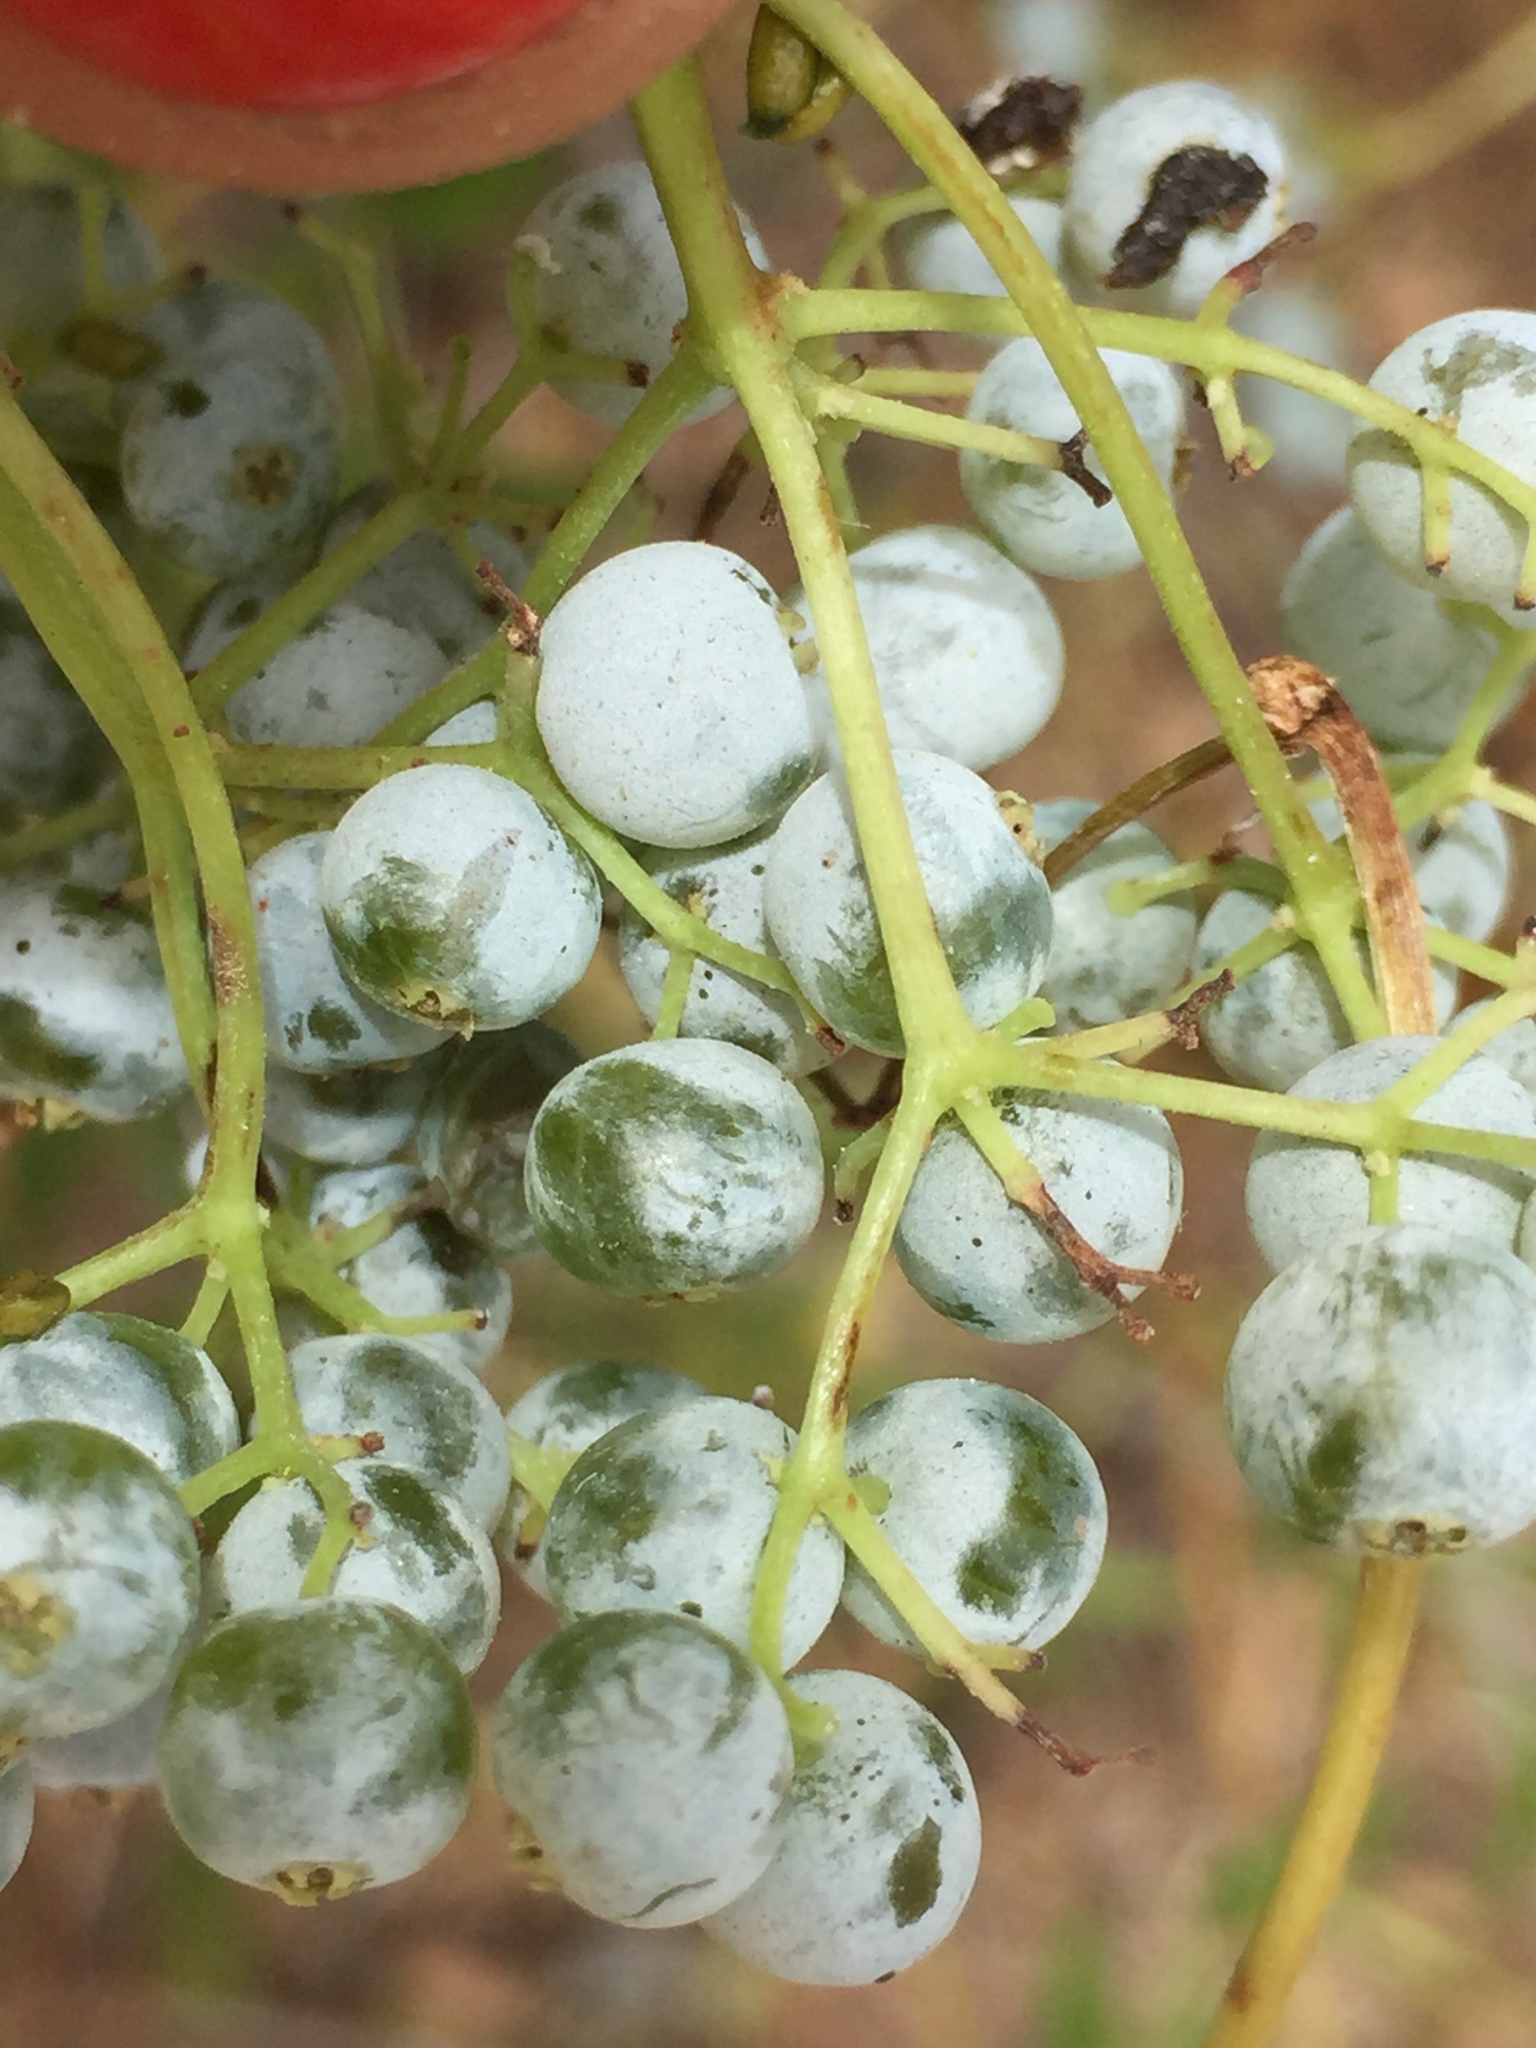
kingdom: Plantae
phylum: Tracheophyta
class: Magnoliopsida
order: Dipsacales
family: Viburnaceae
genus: Sambucus
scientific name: Sambucus cerulea
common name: Blue elder
